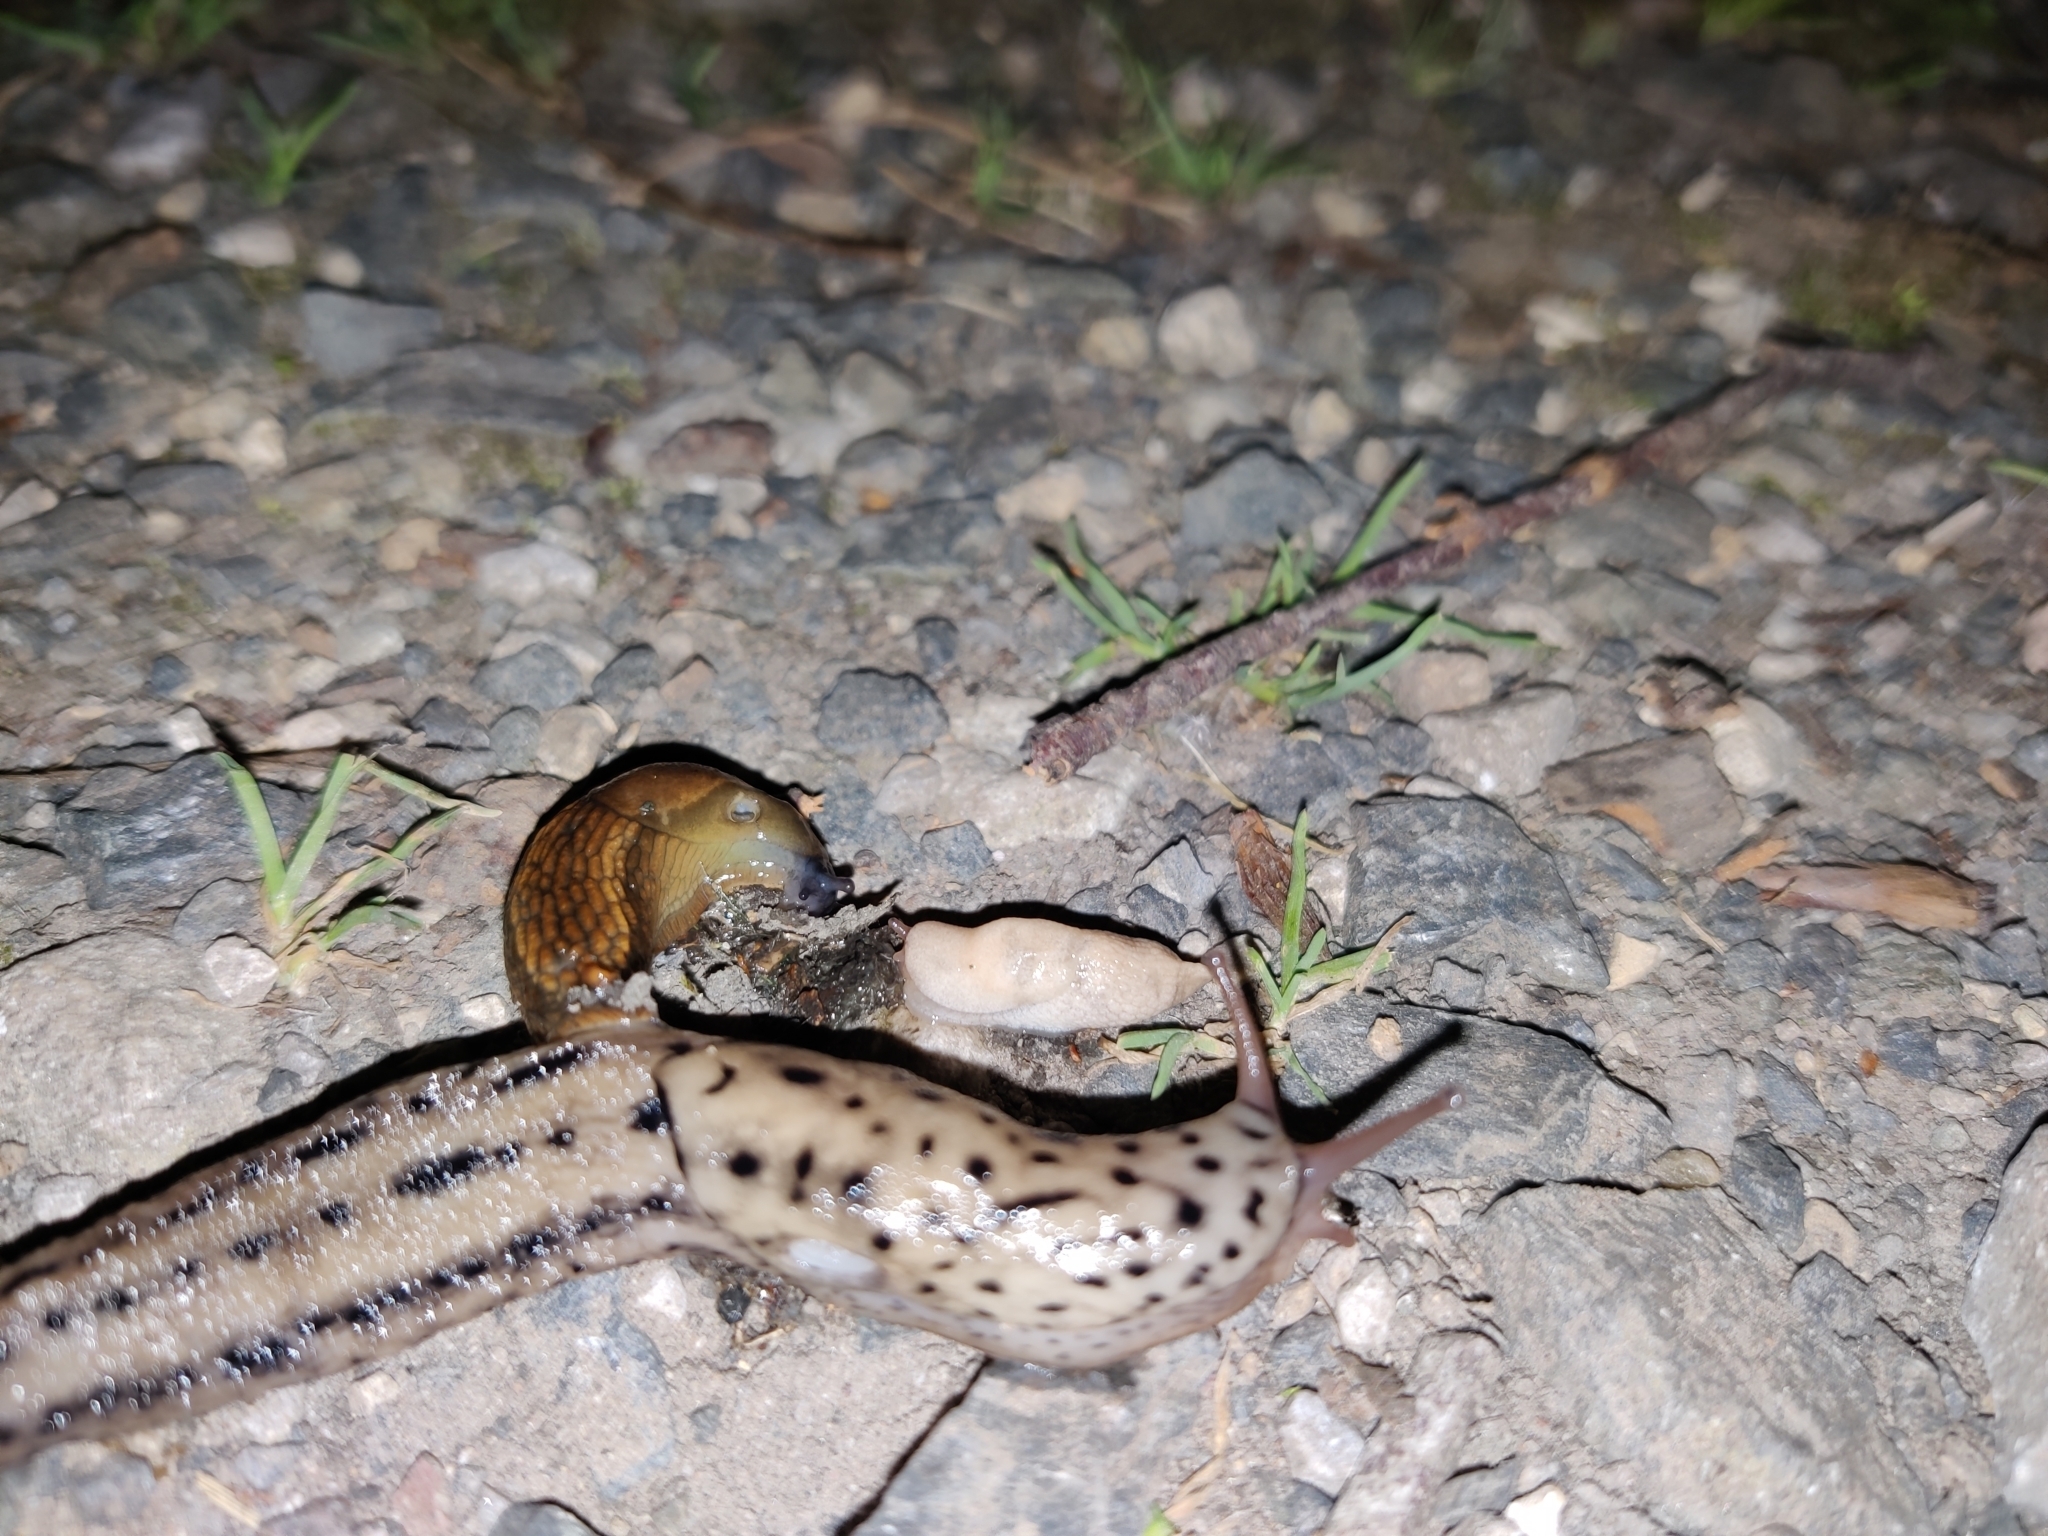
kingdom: Animalia
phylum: Mollusca
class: Gastropoda
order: Stylommatophora
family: Limacidae
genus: Limax
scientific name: Limax maximus
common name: Great grey slug
